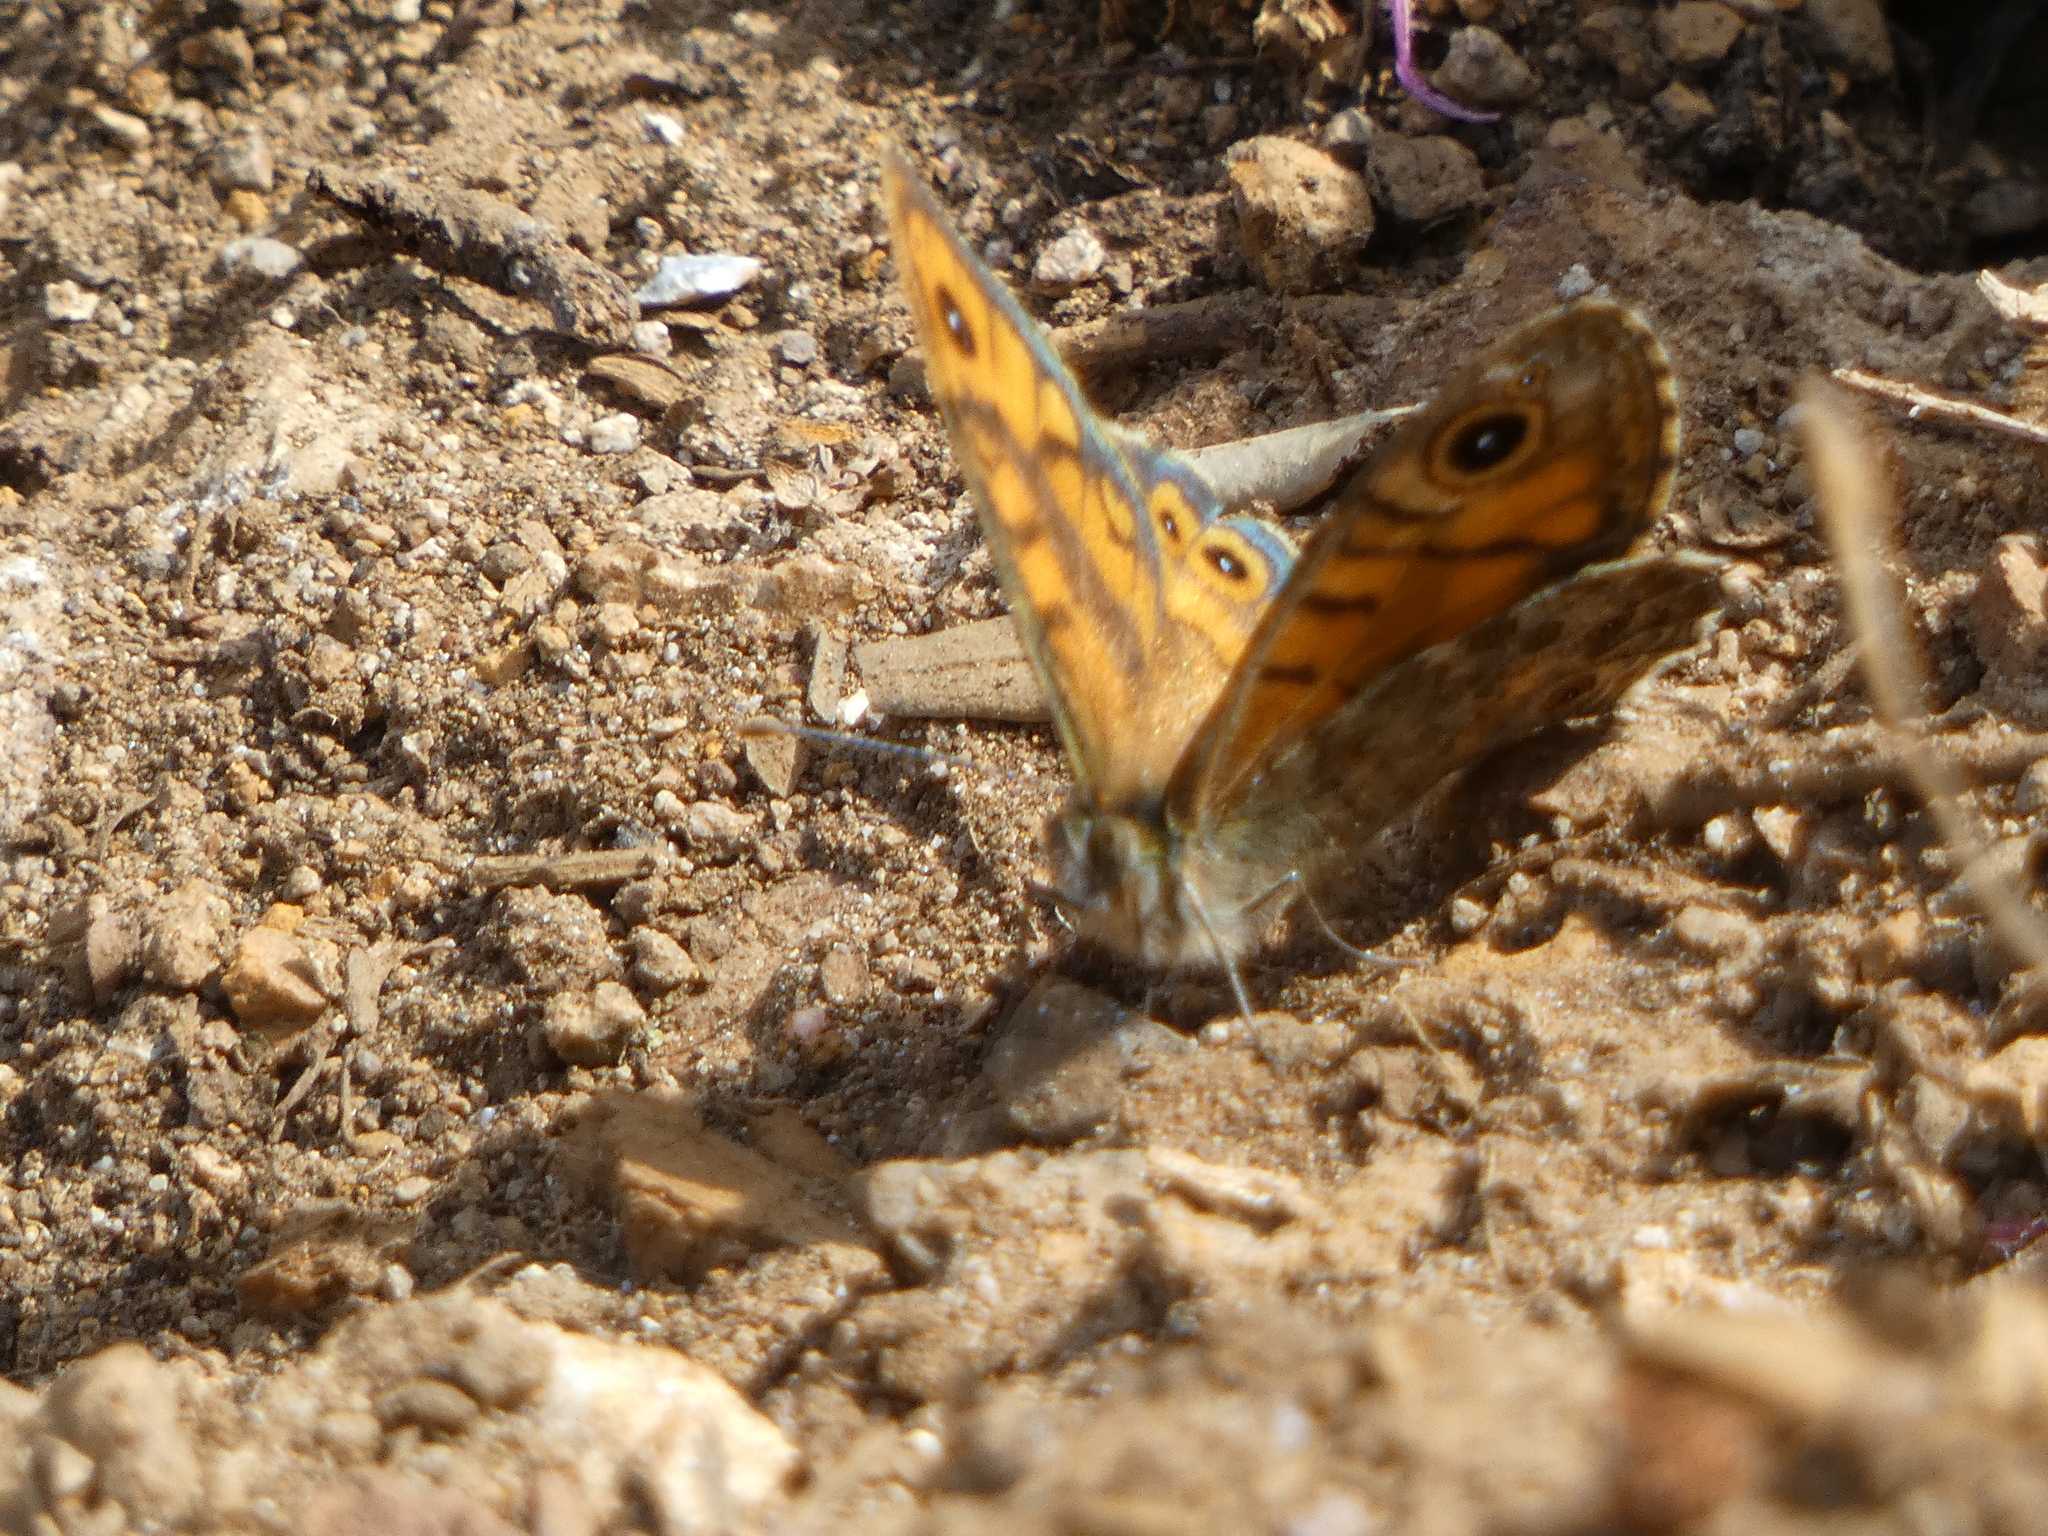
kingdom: Animalia
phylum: Arthropoda
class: Insecta
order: Lepidoptera
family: Nymphalidae
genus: Pararge
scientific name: Pararge Lasiommata megera
